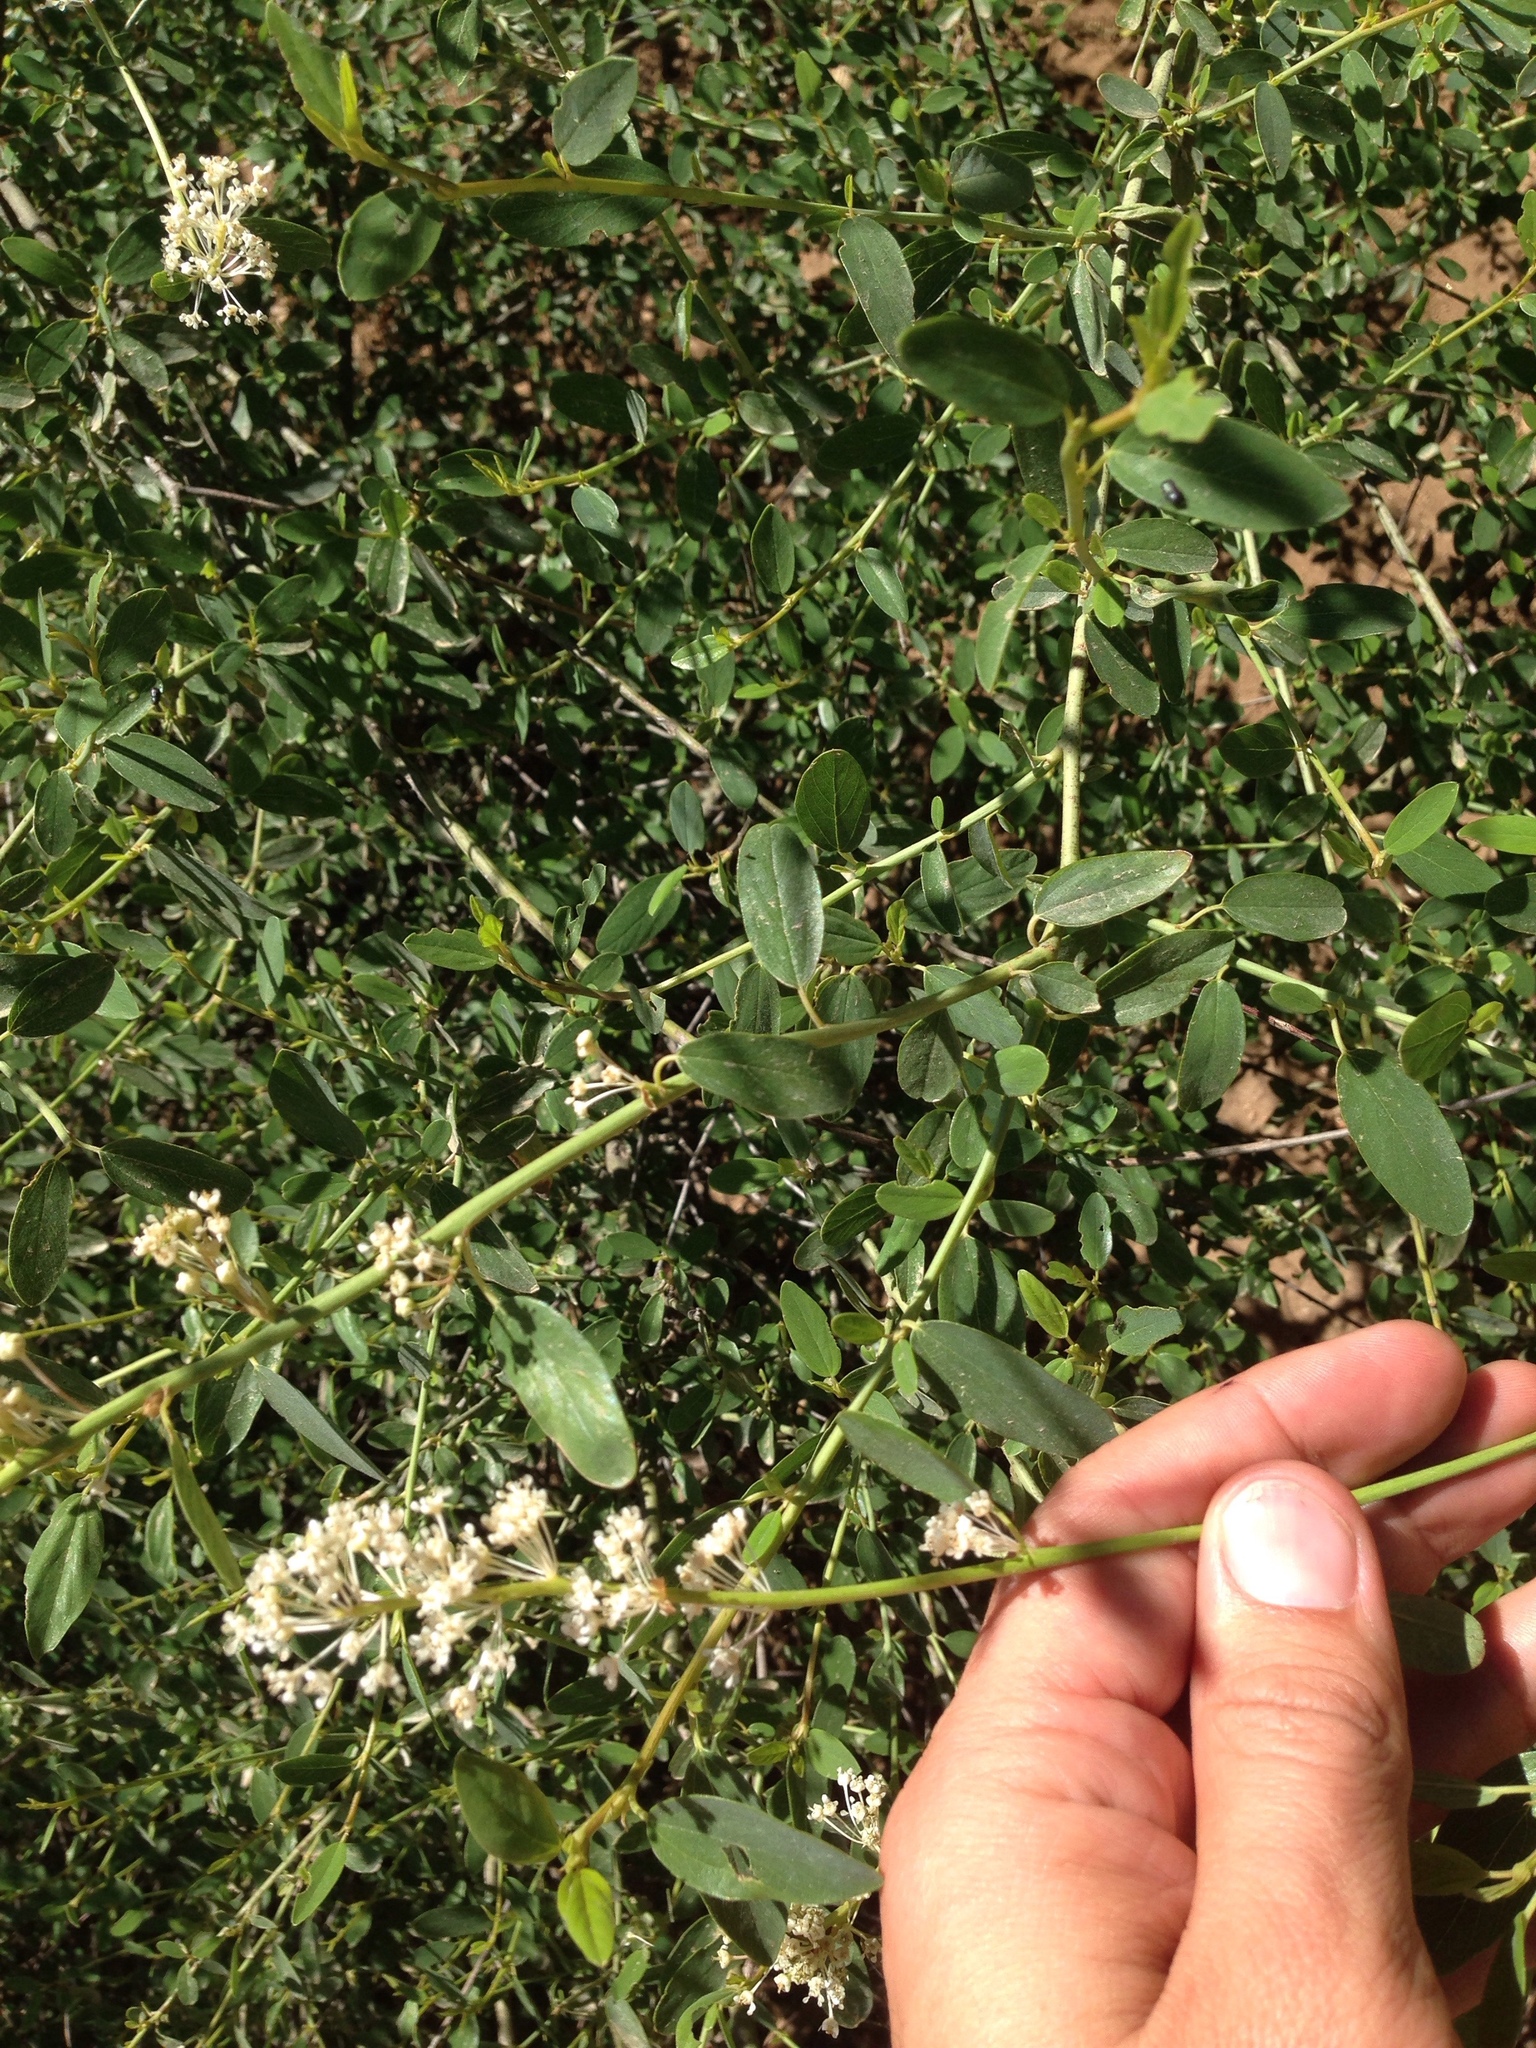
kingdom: Plantae
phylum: Tracheophyta
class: Magnoliopsida
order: Rosales
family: Rhamnaceae
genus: Ceanothus
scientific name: Ceanothus integerrimus
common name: Deerbrush ceanothus
